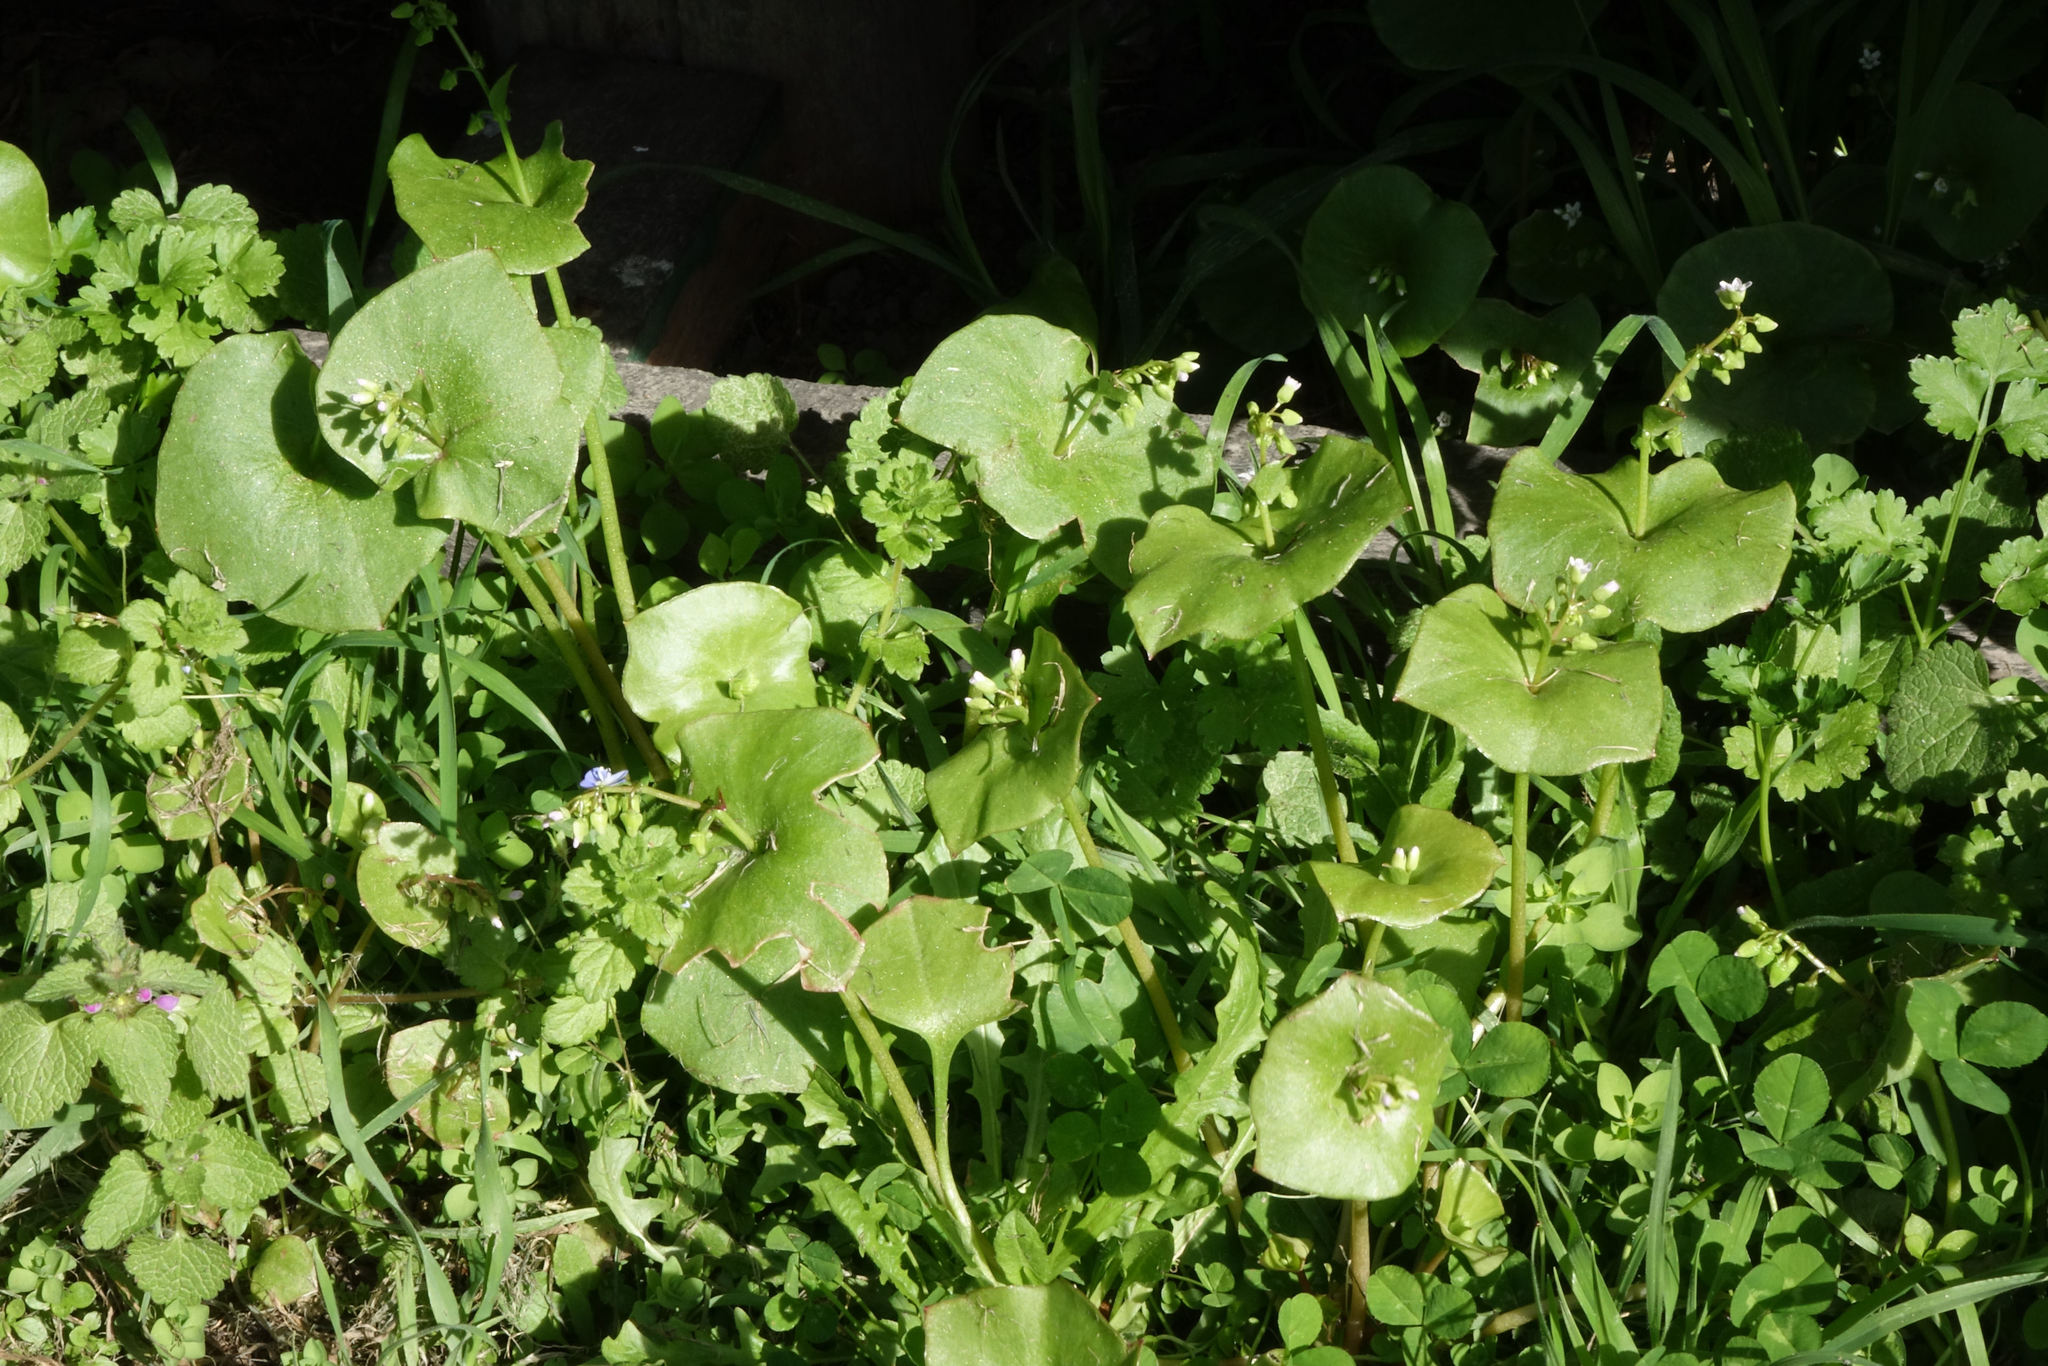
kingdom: Plantae
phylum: Tracheophyta
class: Magnoliopsida
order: Caryophyllales
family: Montiaceae
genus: Claytonia
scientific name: Claytonia perfoliata
